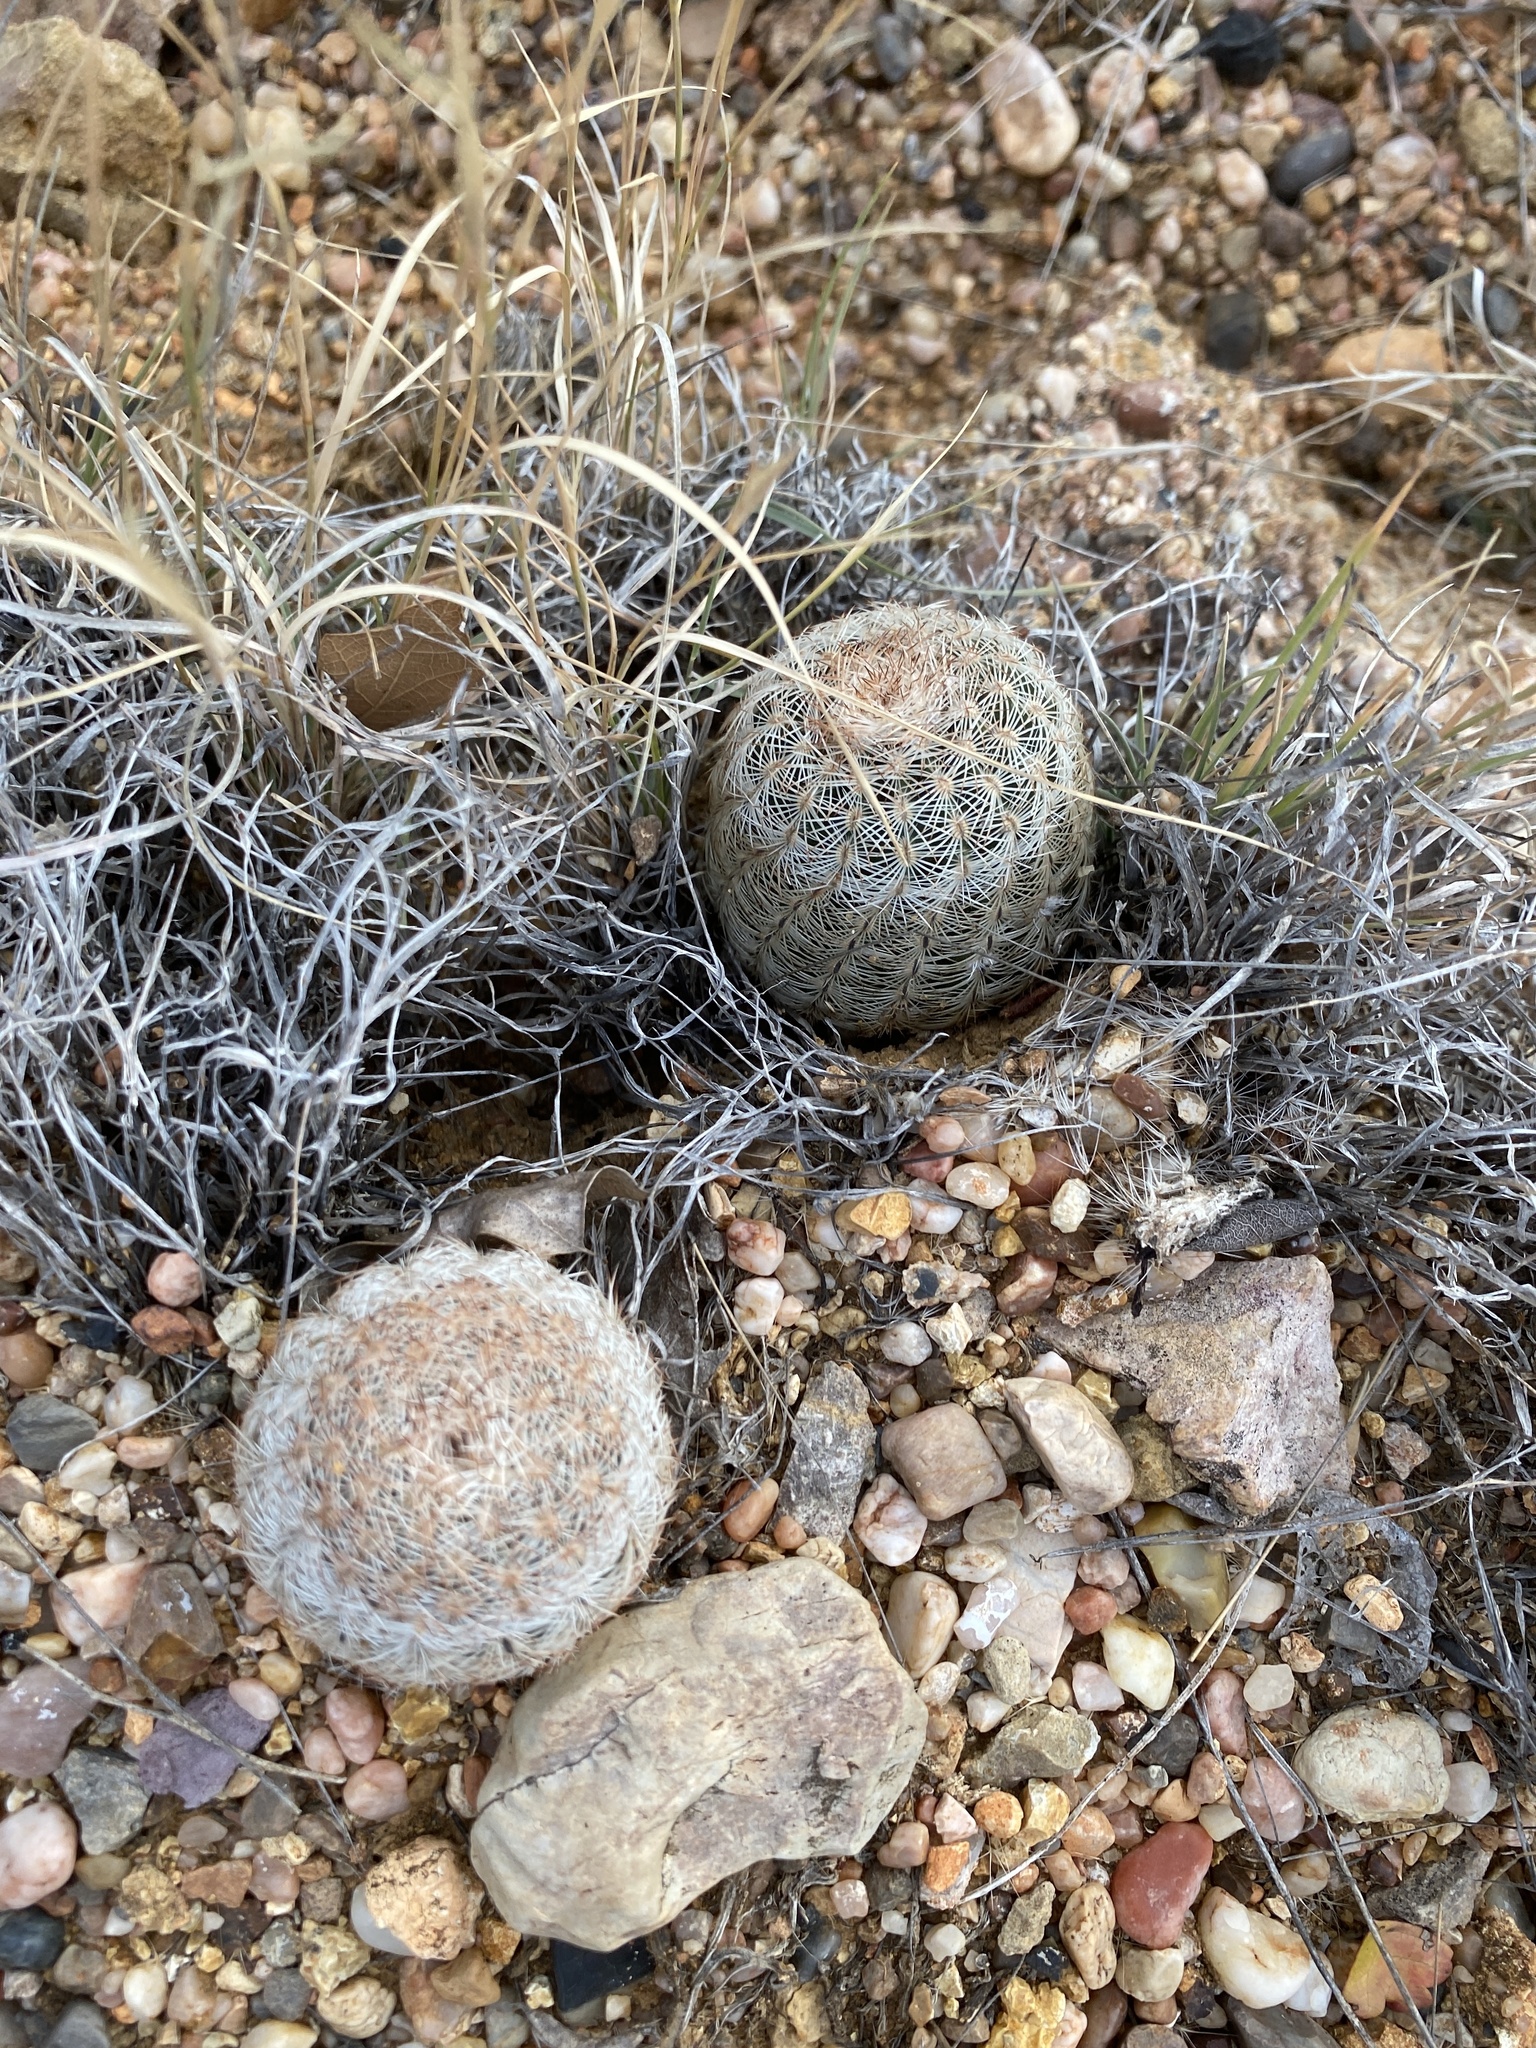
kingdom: Plantae
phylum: Tracheophyta
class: Magnoliopsida
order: Caryophyllales
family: Cactaceae
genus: Echinocereus
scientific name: Echinocereus reichenbachii
